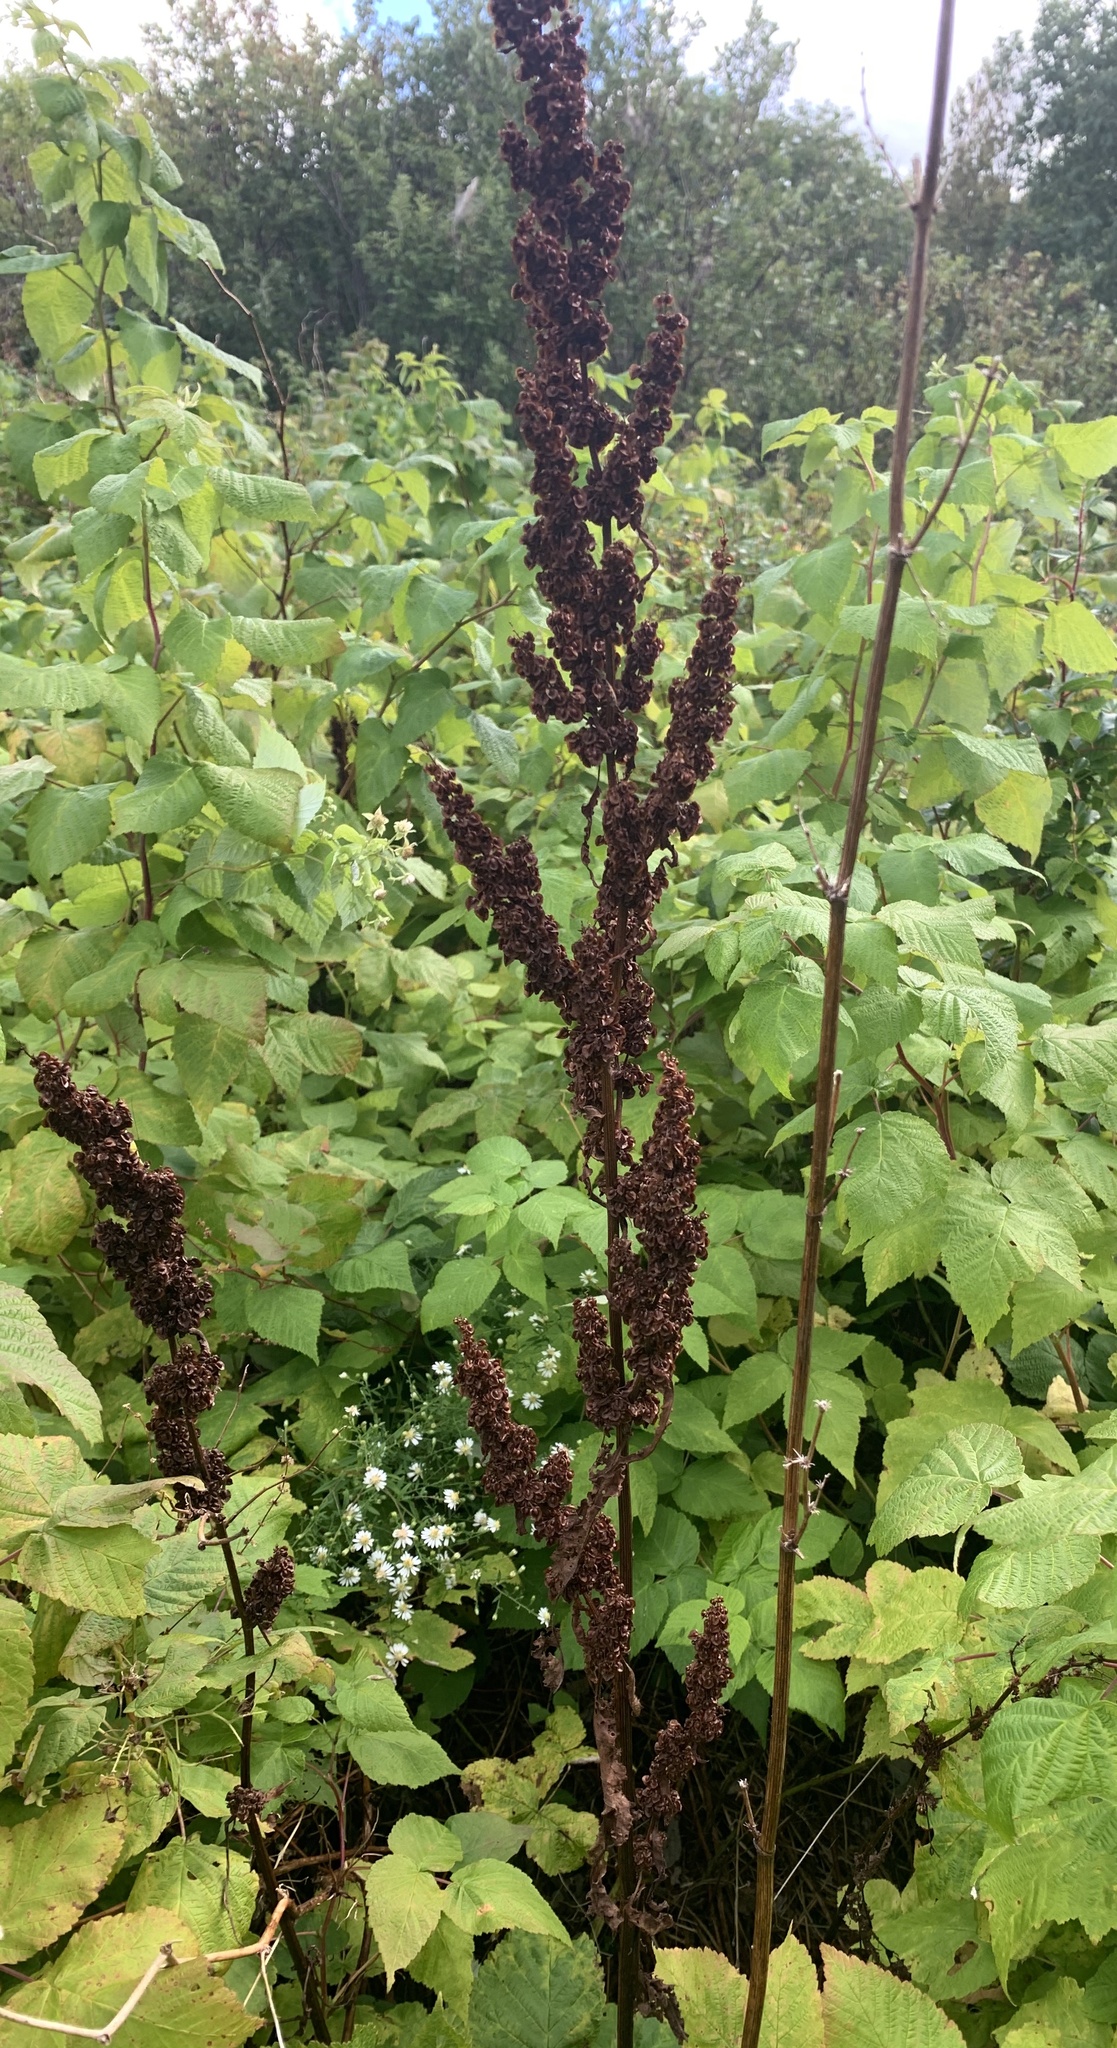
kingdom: Plantae
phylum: Tracheophyta
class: Magnoliopsida
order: Caryophyllales
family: Polygonaceae
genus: Rumex
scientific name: Rumex crispus
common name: Curled dock
